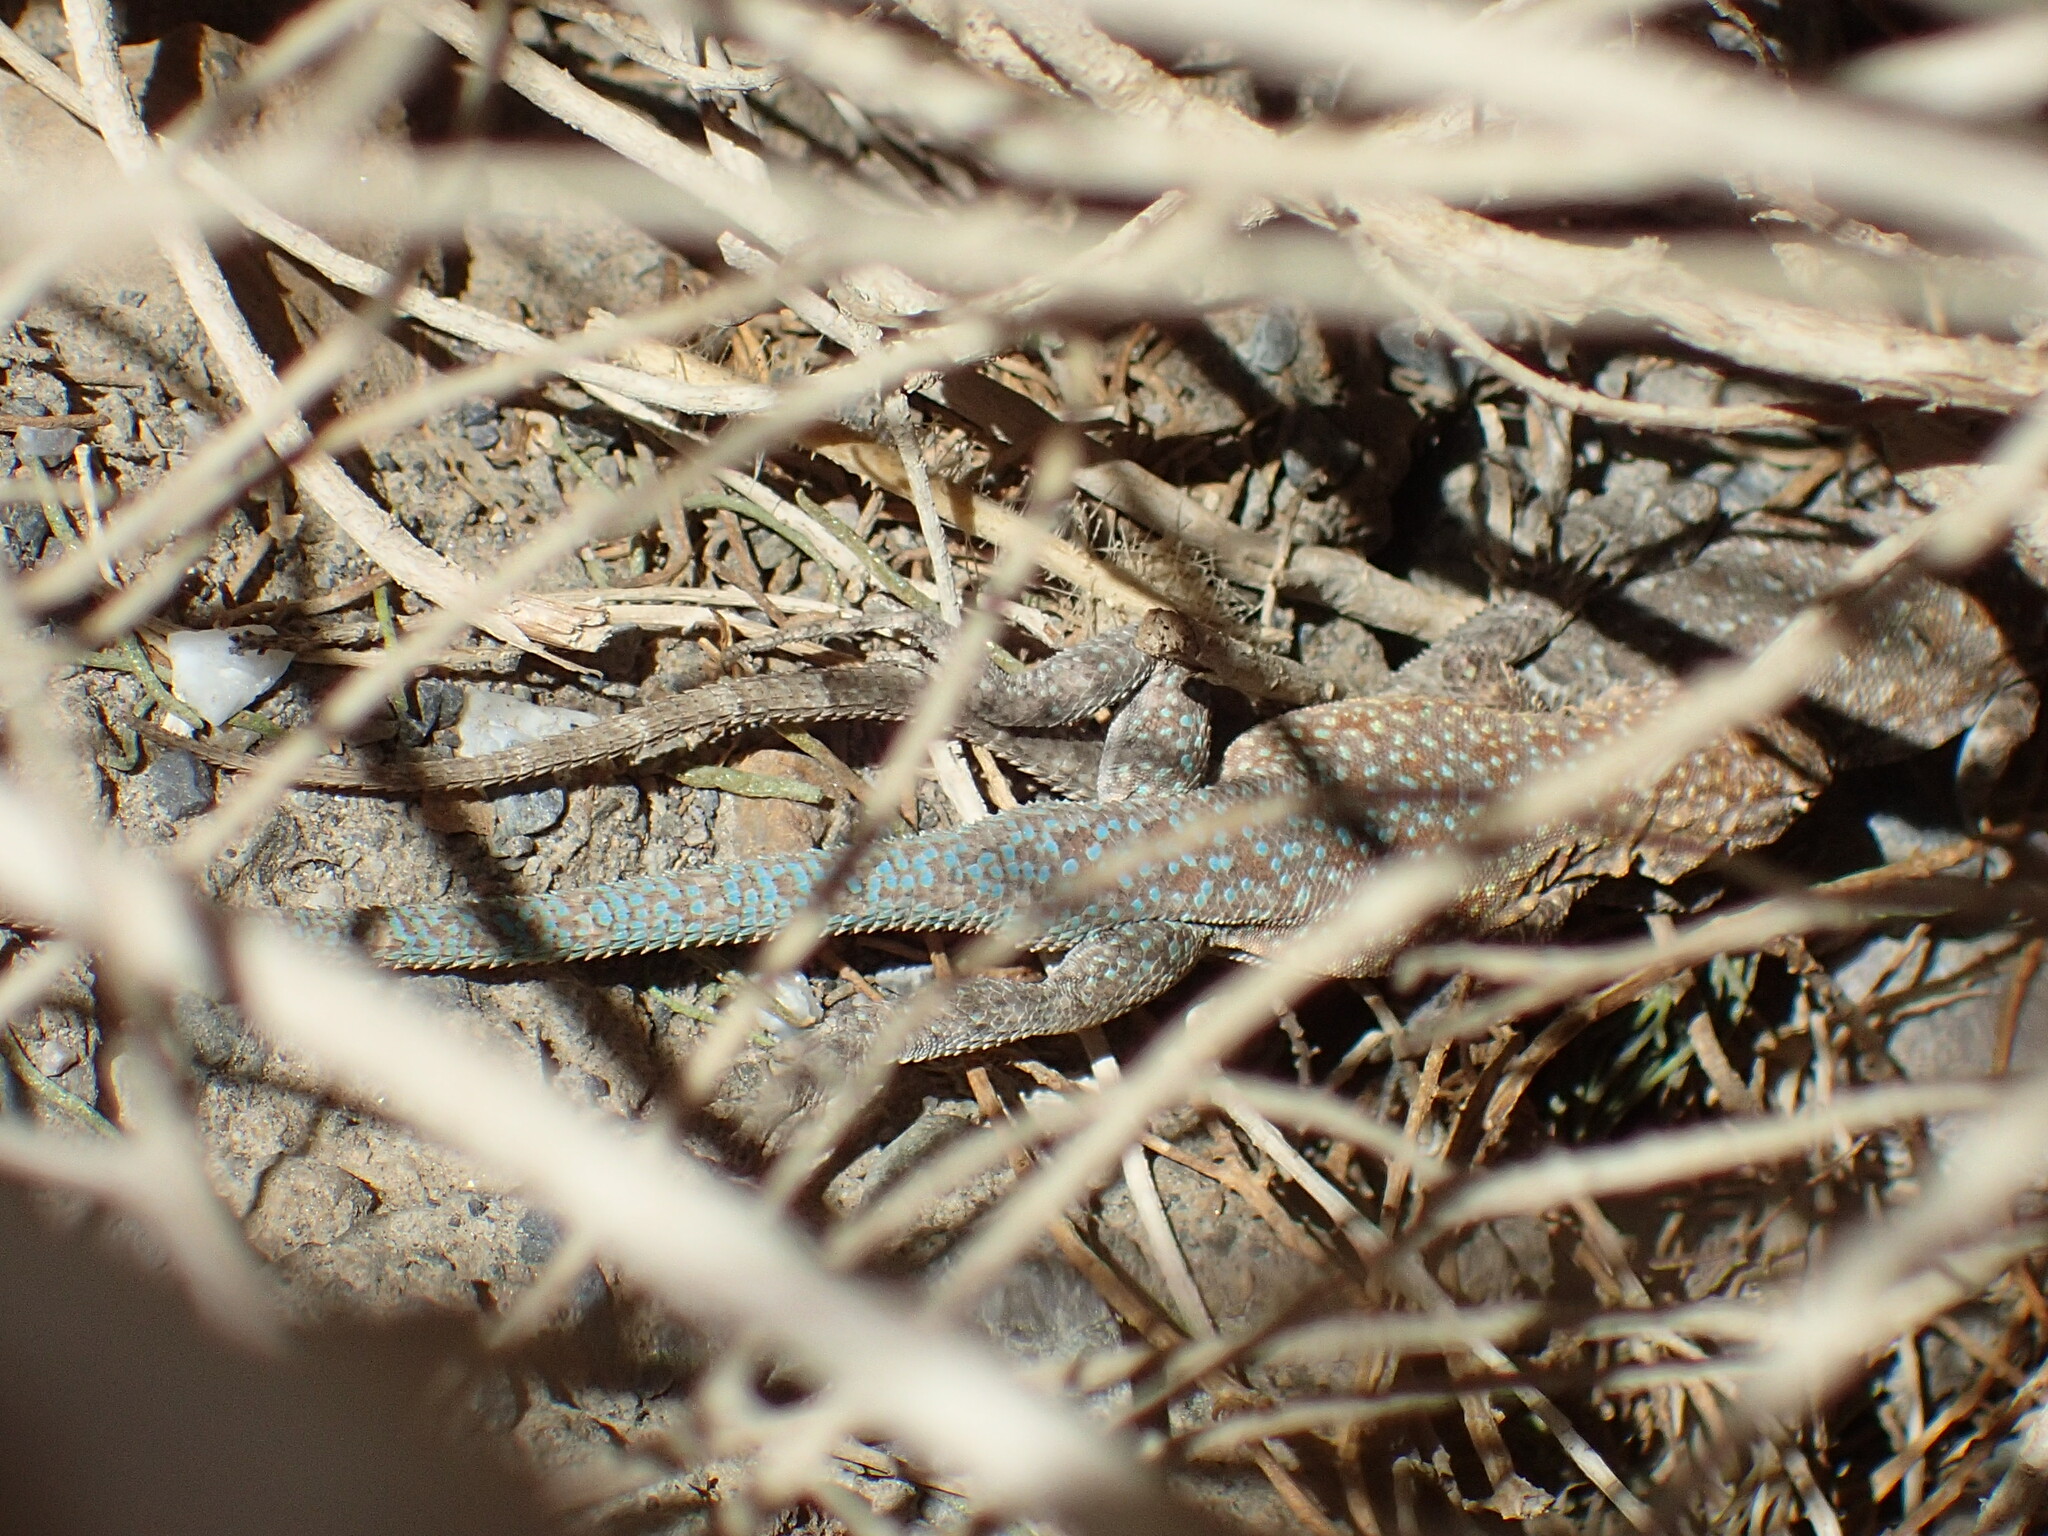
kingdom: Animalia
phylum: Chordata
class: Squamata
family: Phrynosomatidae
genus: Uta
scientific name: Uta stansburiana
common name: Side-blotched lizard
